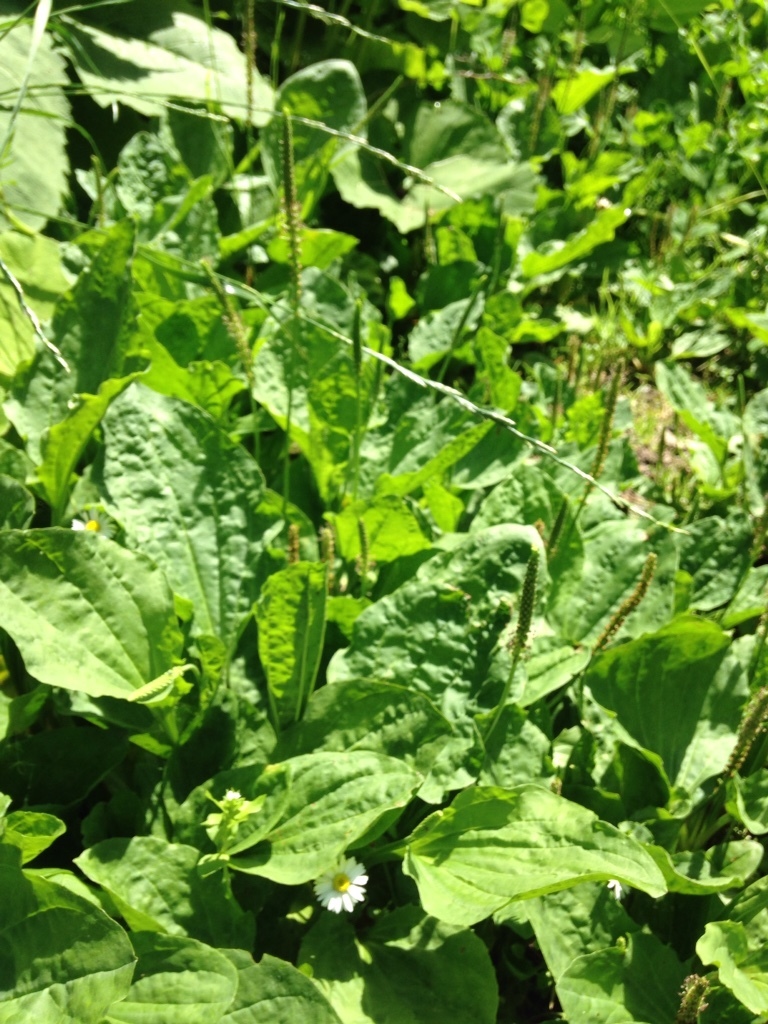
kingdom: Plantae
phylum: Tracheophyta
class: Magnoliopsida
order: Lamiales
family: Plantaginaceae
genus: Plantago
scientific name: Plantago major
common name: Common plantain
